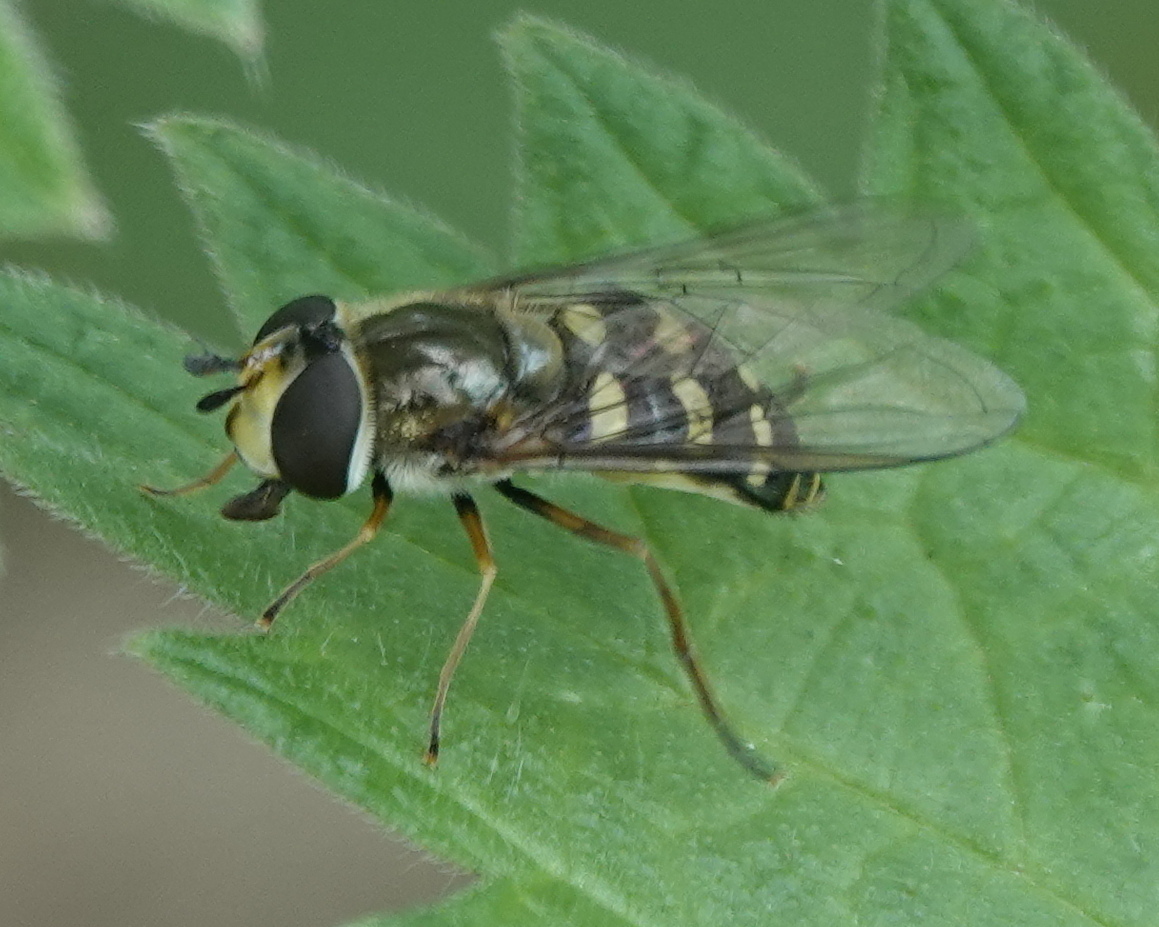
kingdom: Animalia
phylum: Arthropoda
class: Insecta
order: Diptera
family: Syrphidae
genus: Eupeodes
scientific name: Eupeodes luniger
